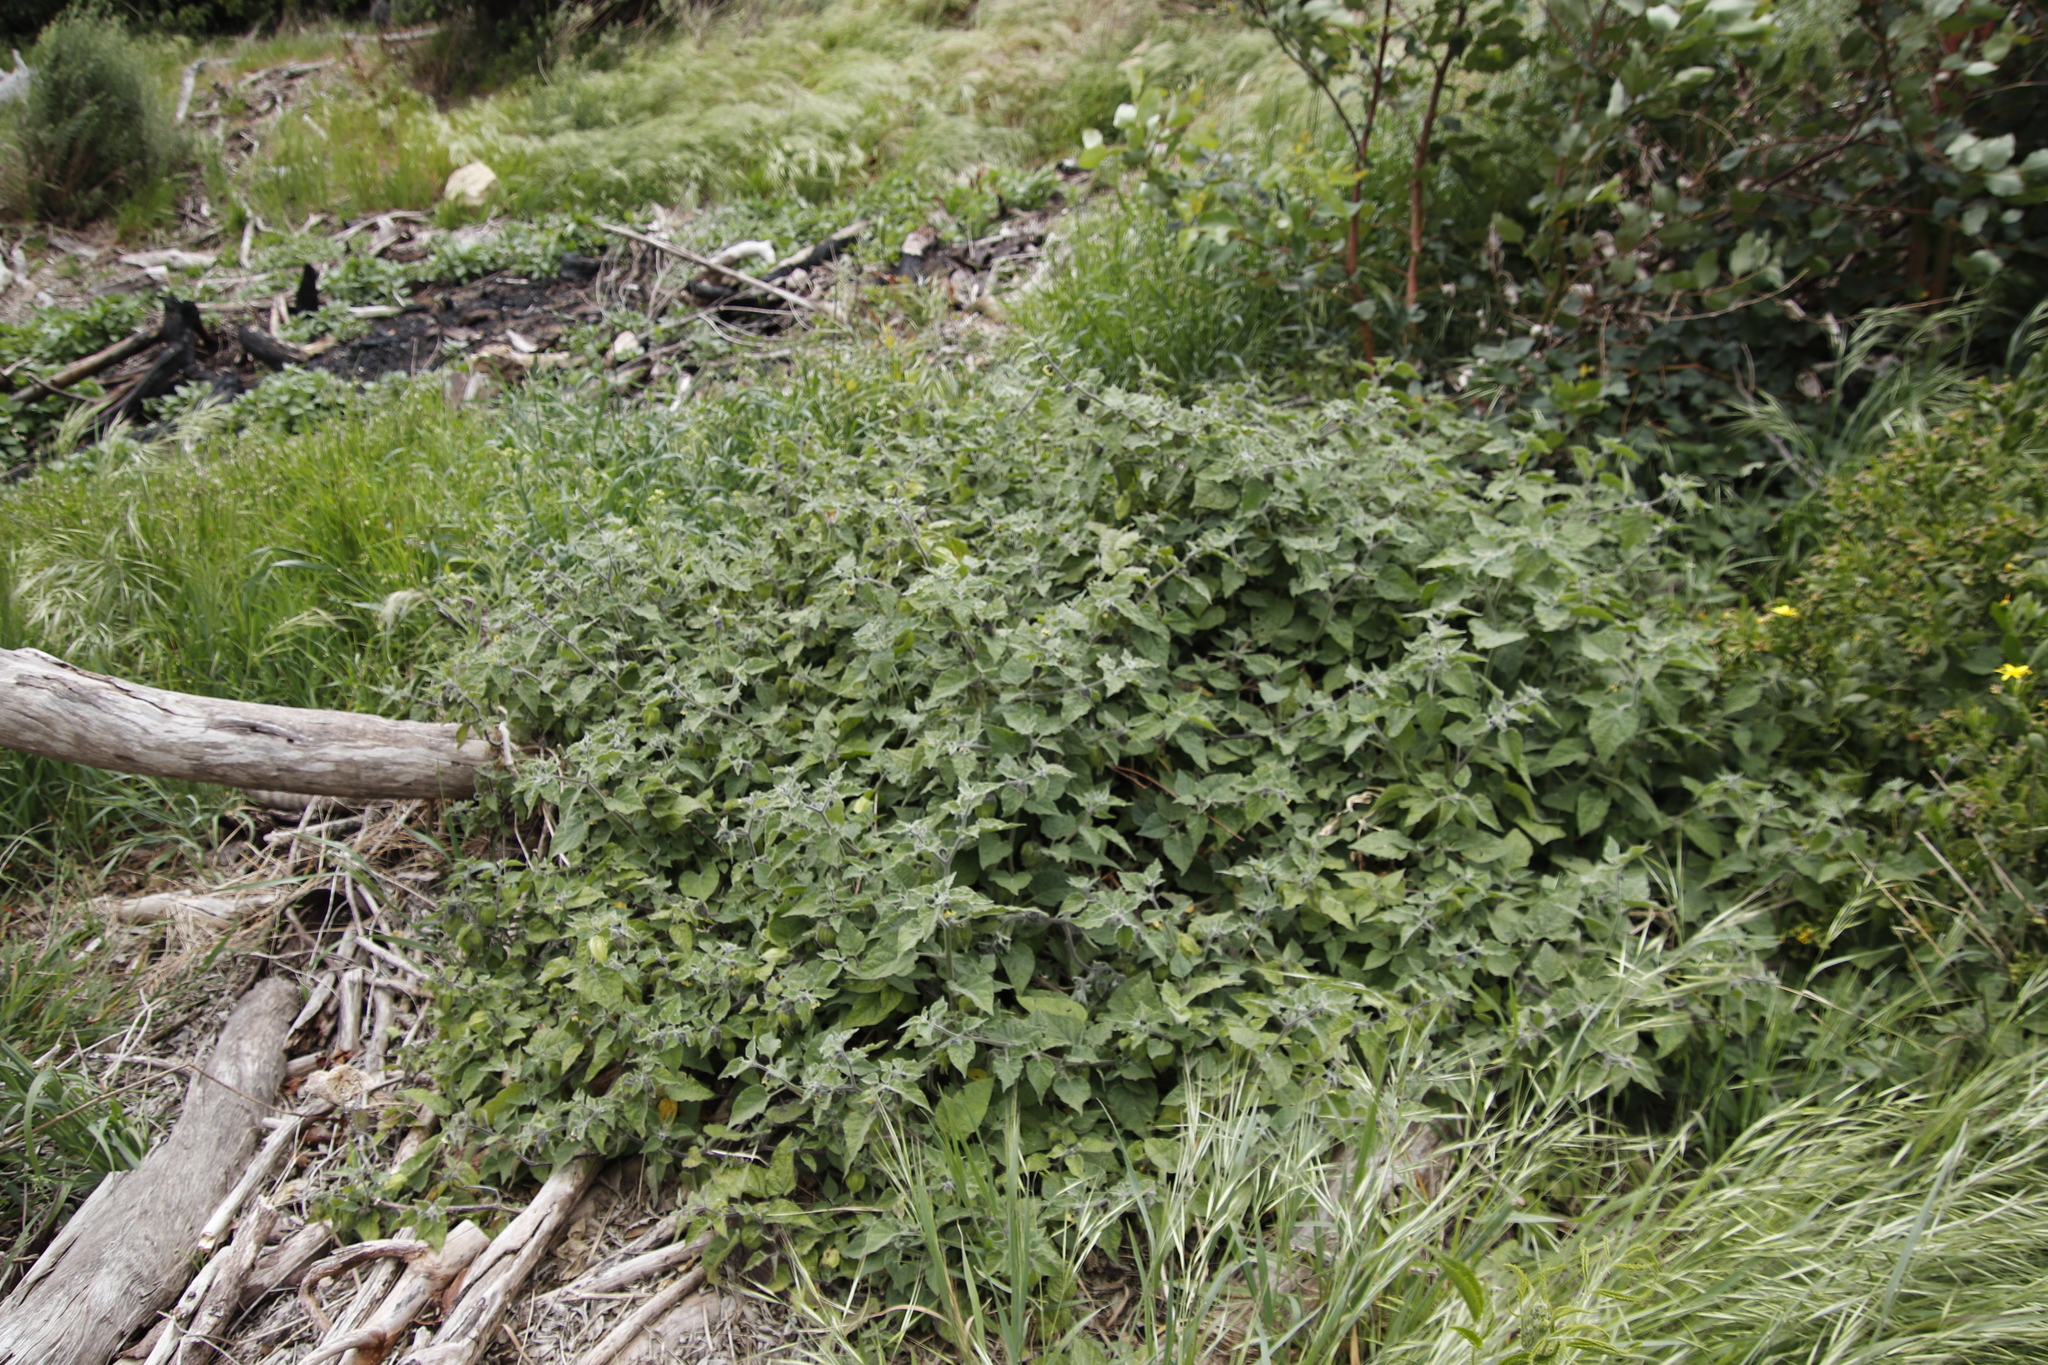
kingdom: Plantae
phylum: Tracheophyta
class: Magnoliopsida
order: Solanales
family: Solanaceae
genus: Physalis
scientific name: Physalis peruviana
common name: Cape-gooseberry
